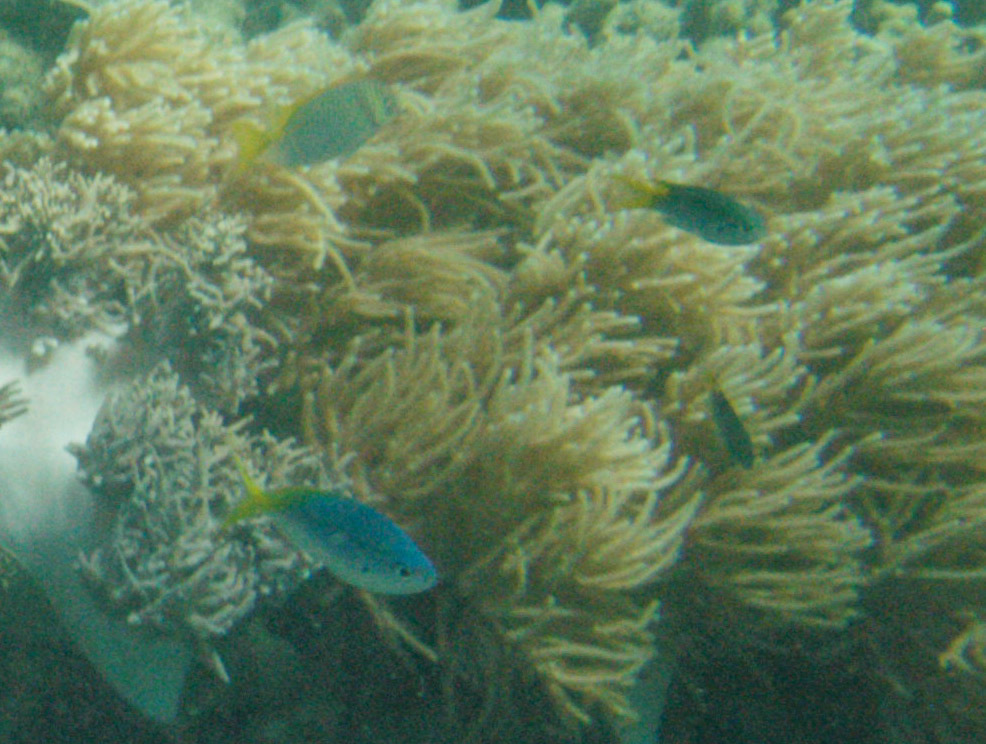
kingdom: Animalia
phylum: Chordata
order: Perciformes
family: Caesionidae
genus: Caesio
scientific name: Caesio cuning
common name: Red-bellied fusilier
